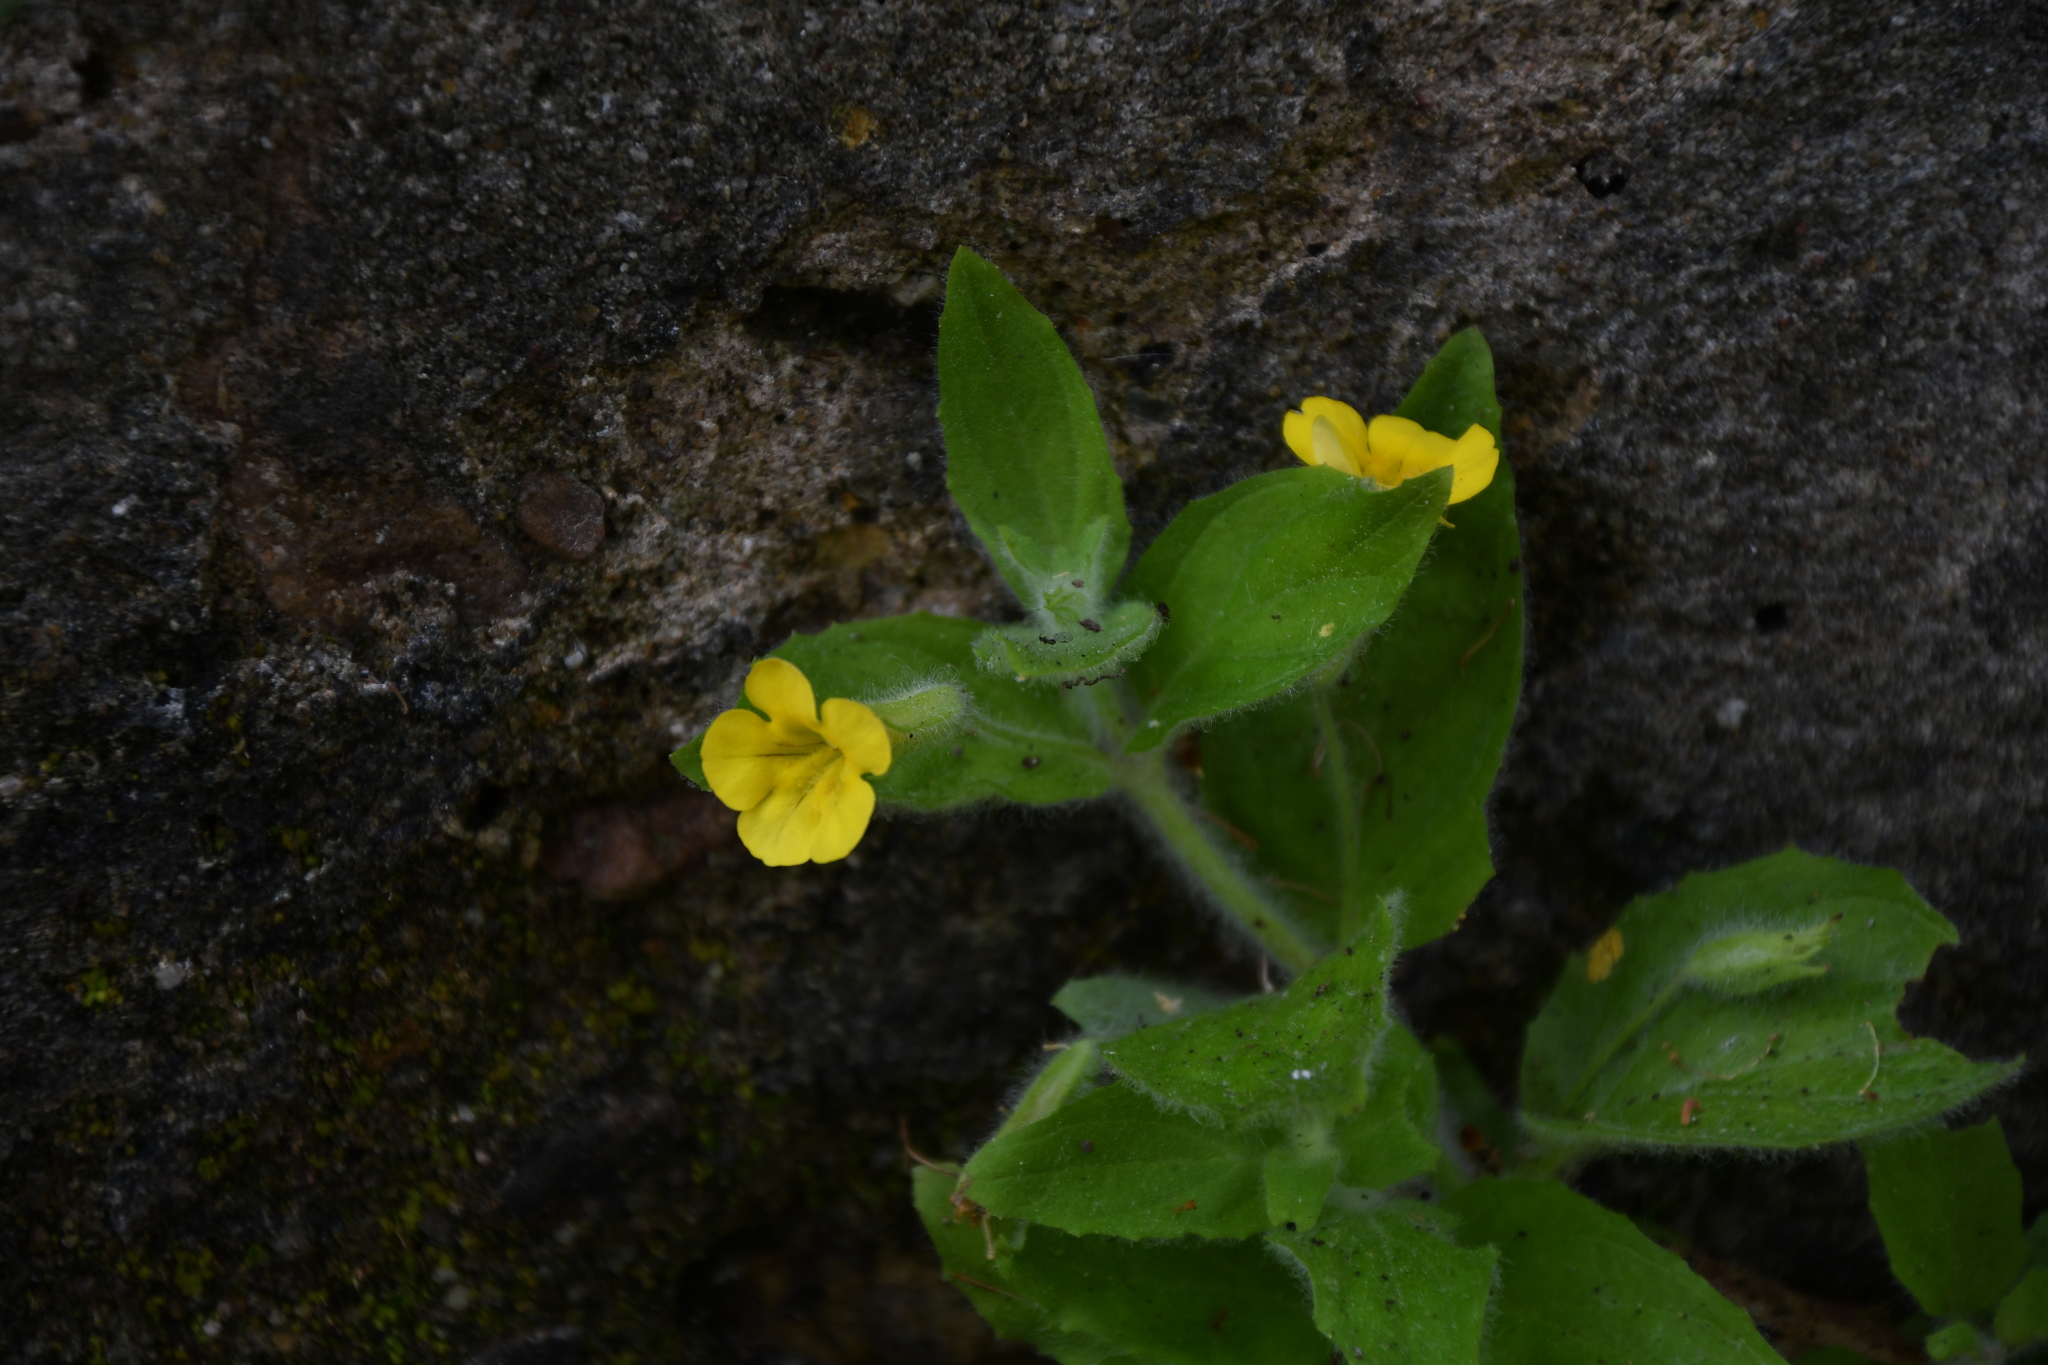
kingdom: Plantae
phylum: Tracheophyta
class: Magnoliopsida
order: Asterales
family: Goodeniaceae
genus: Goodenia
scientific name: Goodenia amplexans
